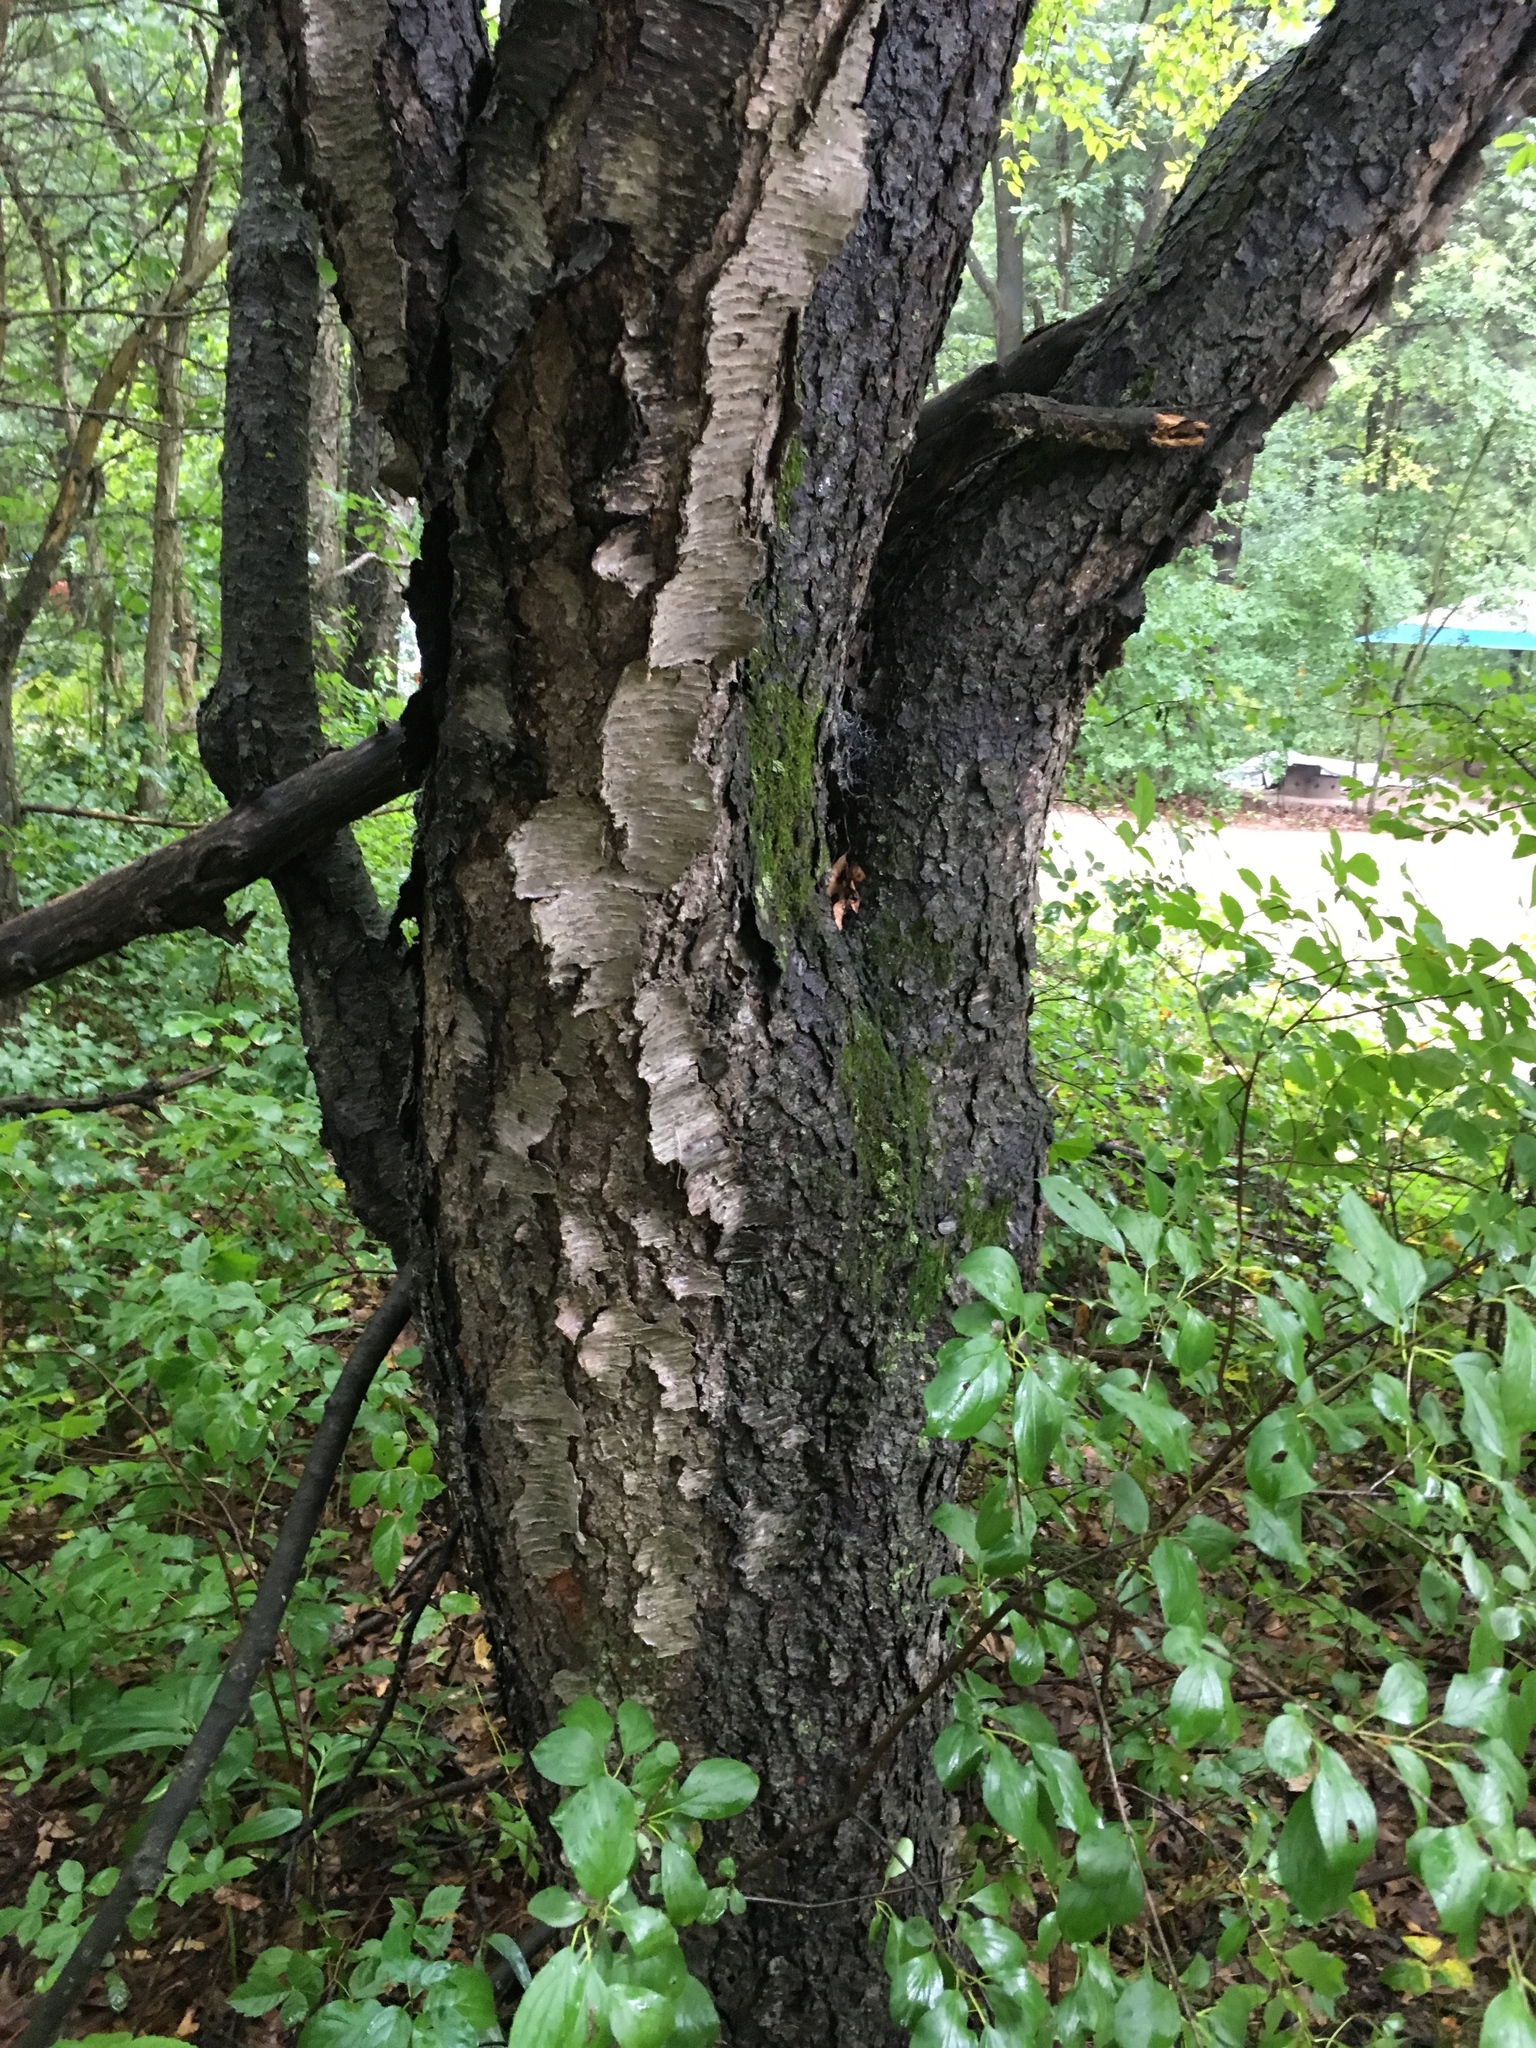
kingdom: Plantae
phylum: Tracheophyta
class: Magnoliopsida
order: Rosales
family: Rosaceae
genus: Prunus
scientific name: Prunus serotina
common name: Black cherry
